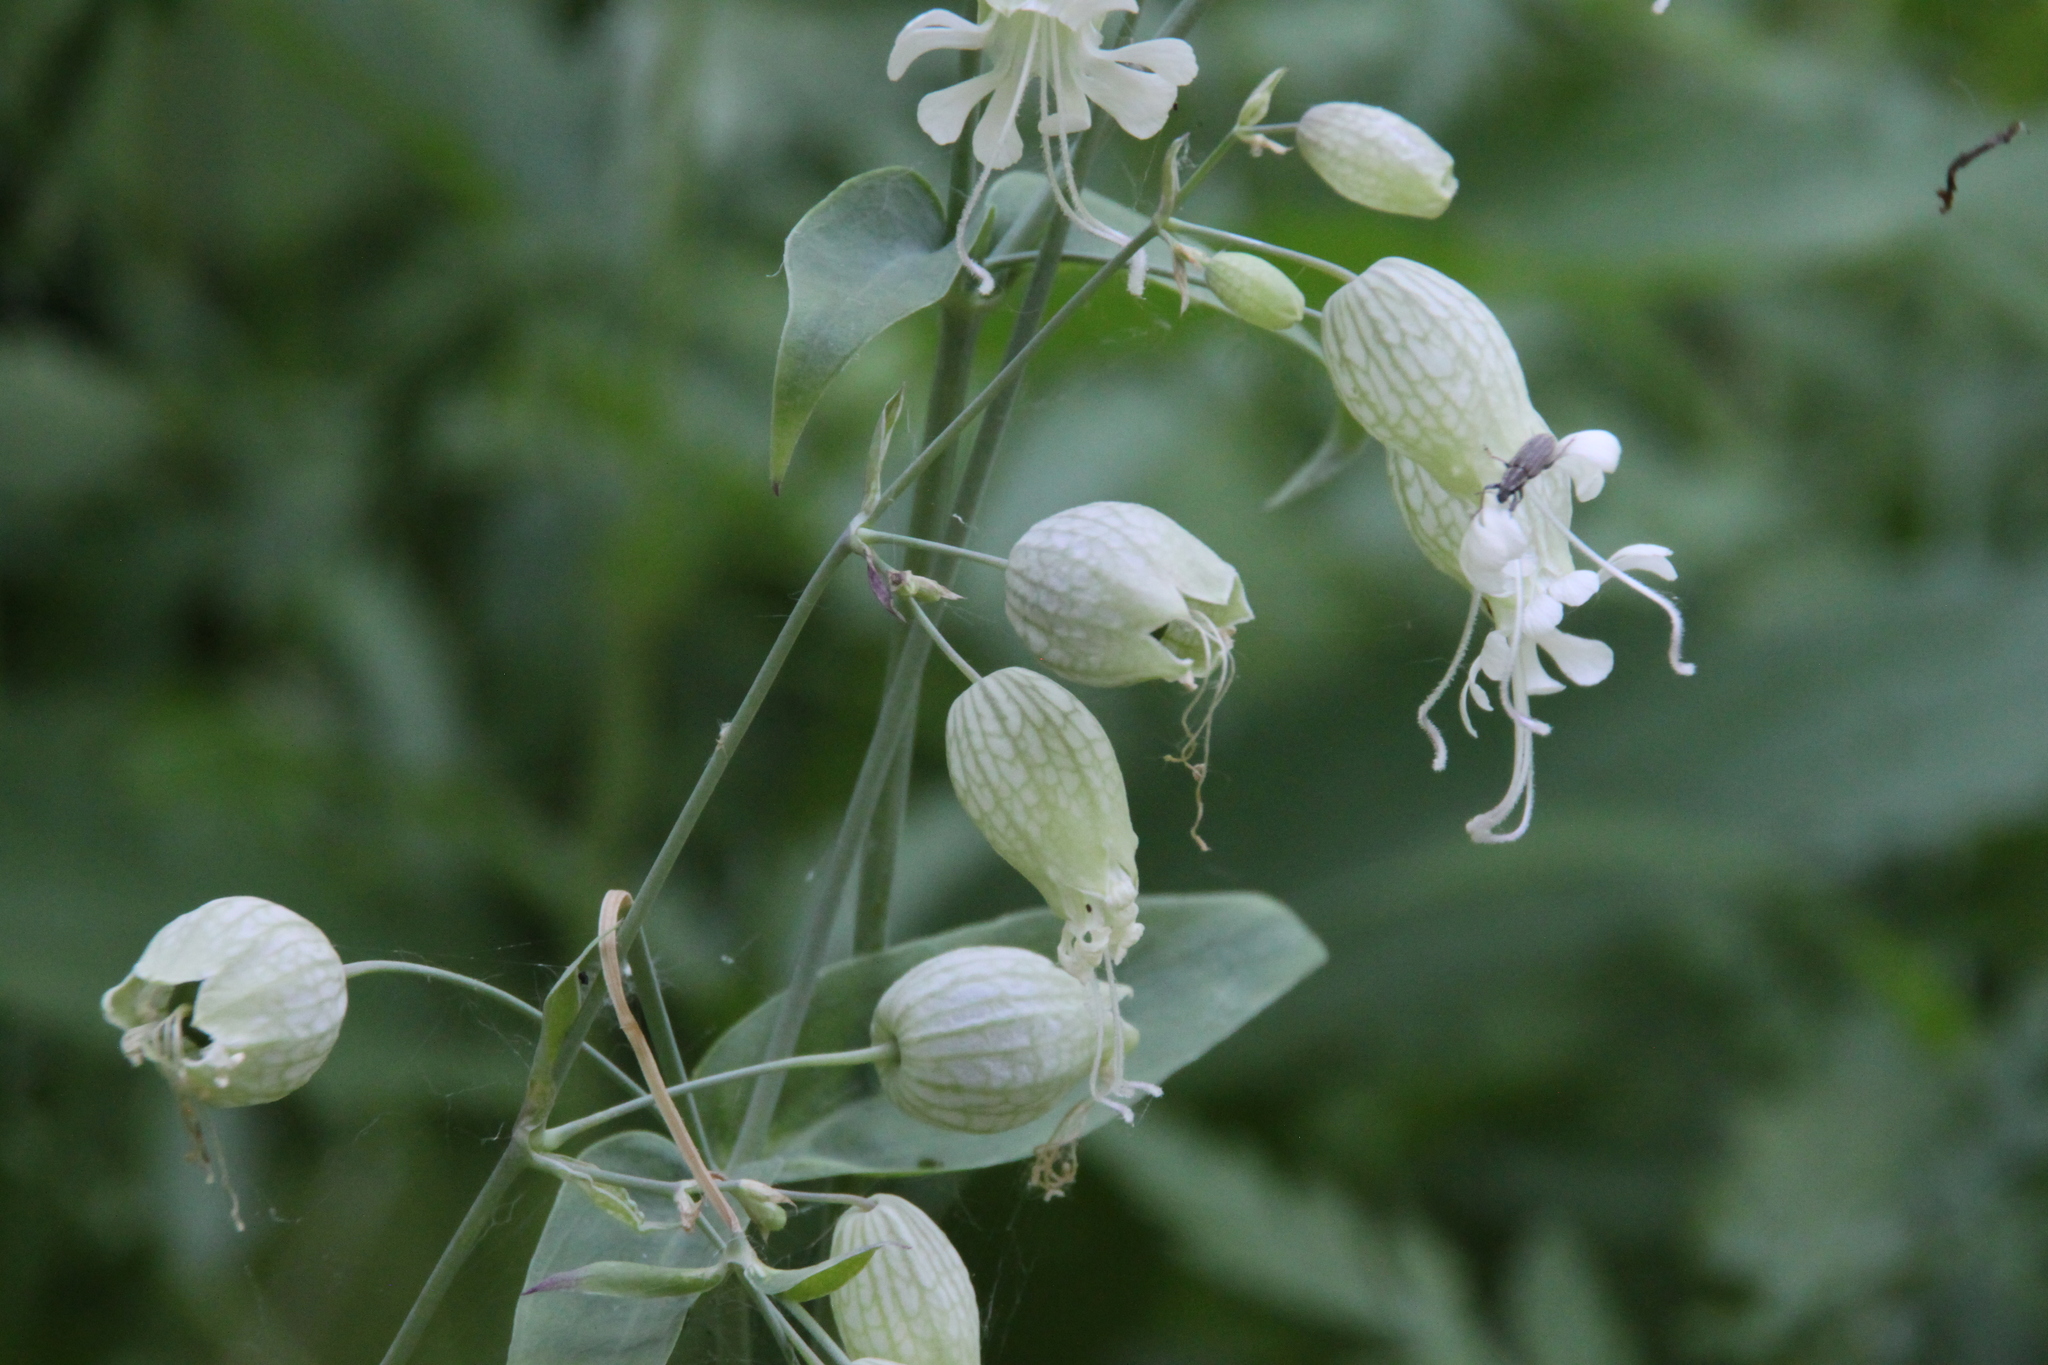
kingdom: Plantae
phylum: Tracheophyta
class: Magnoliopsida
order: Caryophyllales
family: Caryophyllaceae
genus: Silene
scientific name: Silene vulgaris
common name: Bladder campion
